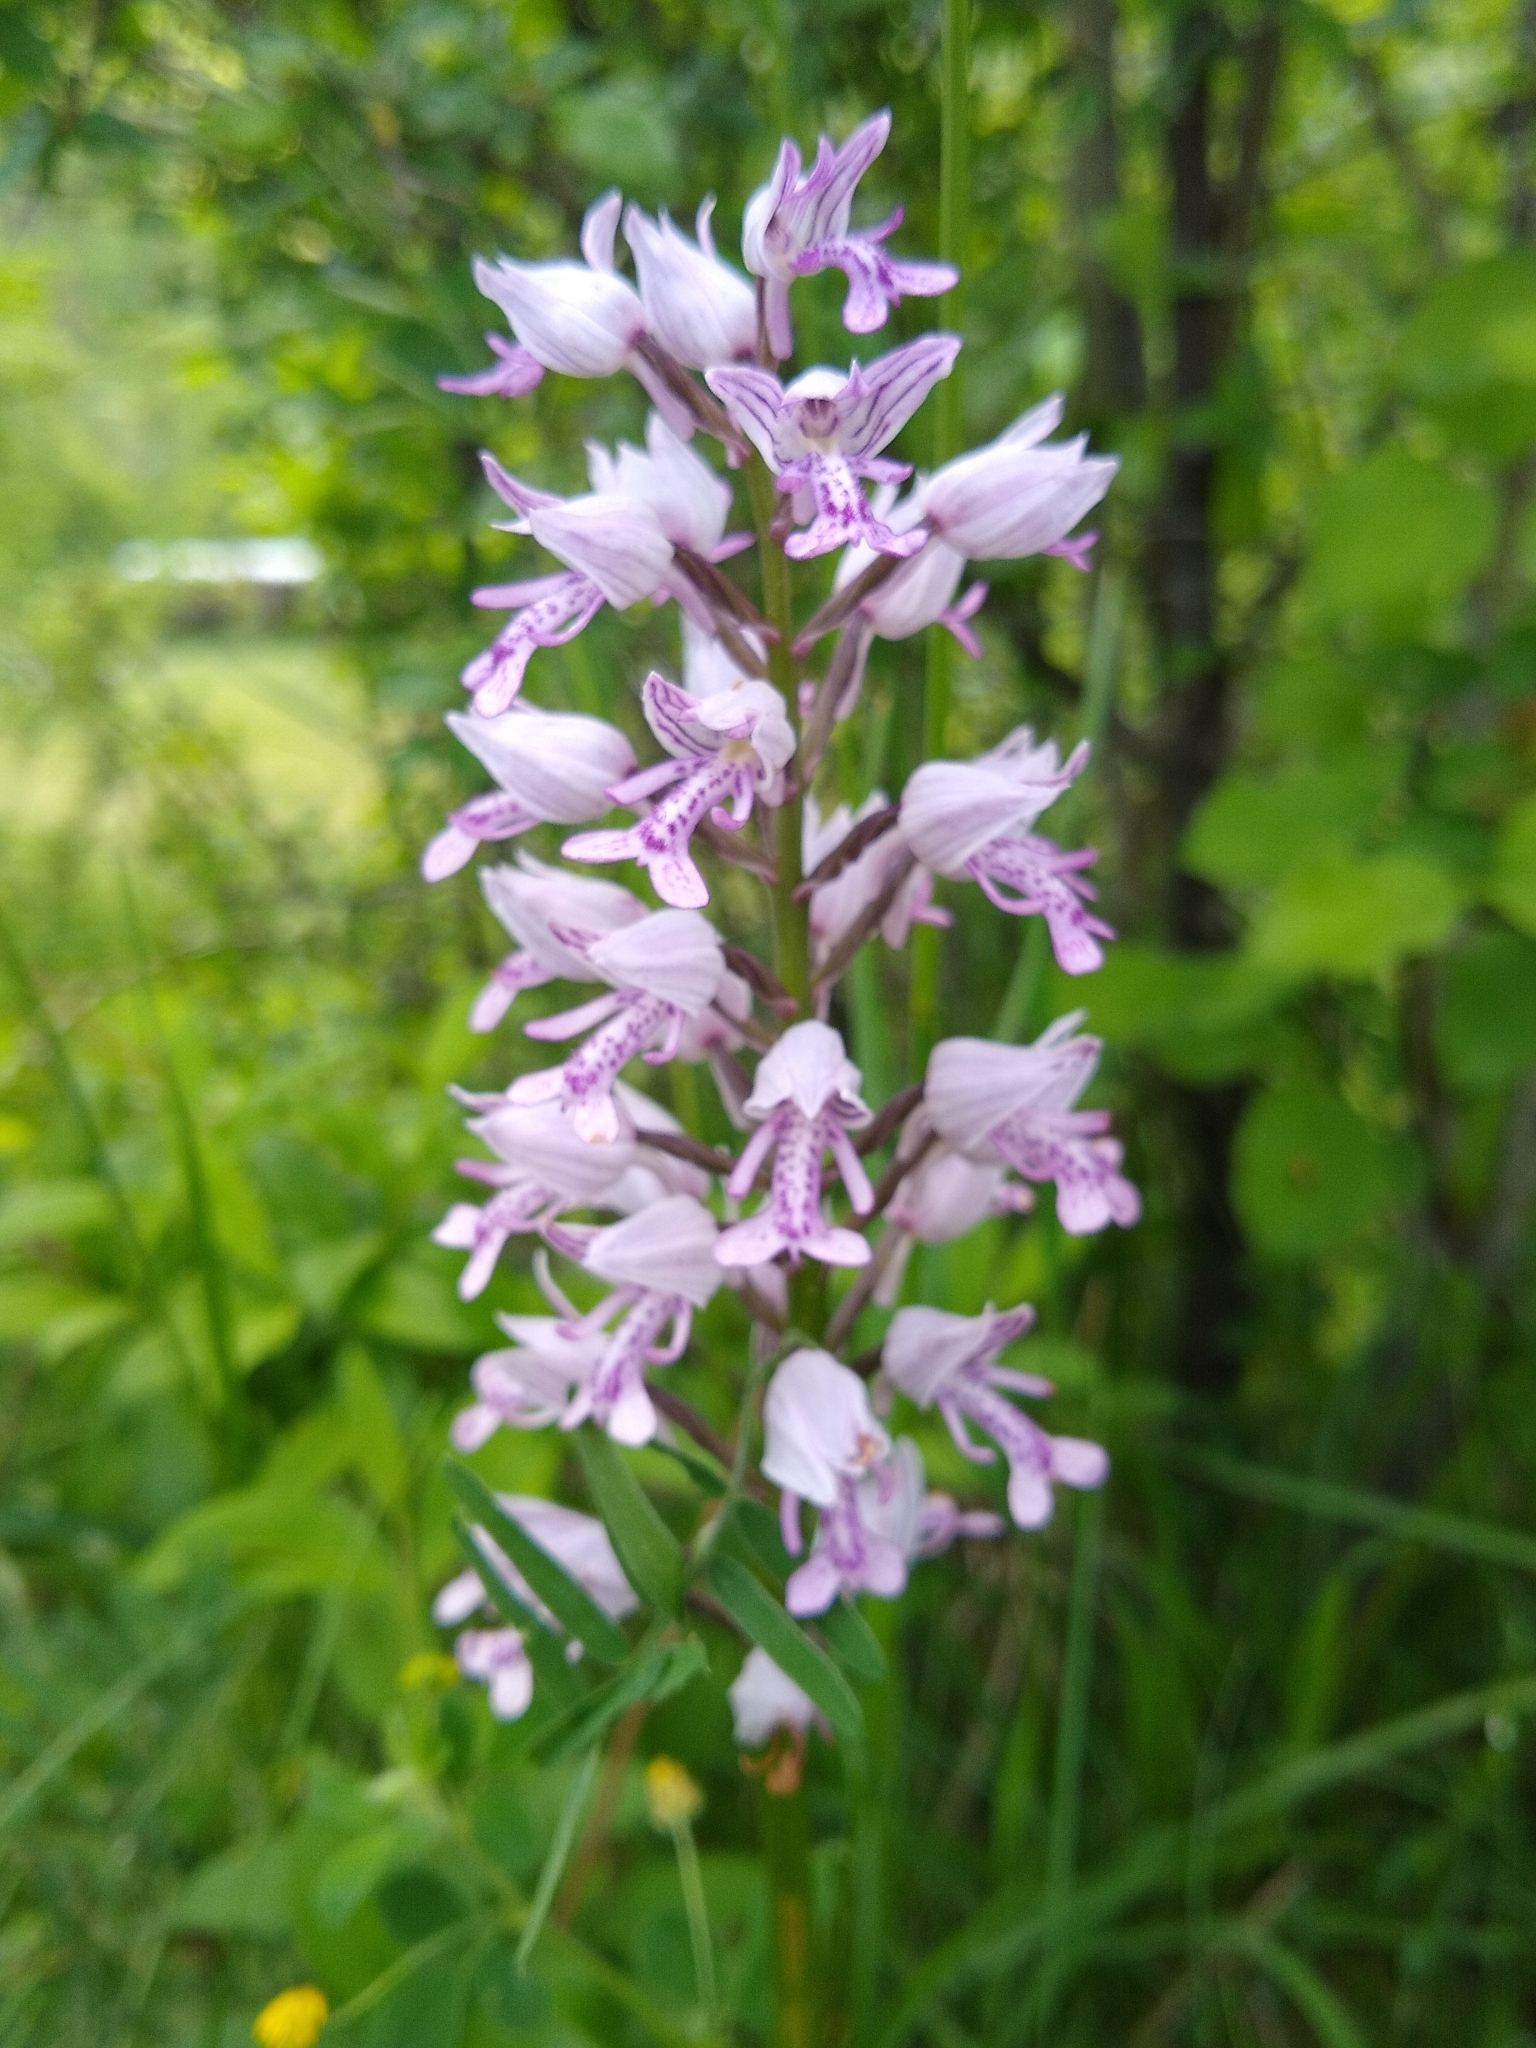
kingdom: Plantae
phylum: Tracheophyta
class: Liliopsida
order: Asparagales
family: Orchidaceae
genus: Orchis
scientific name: Orchis militaris
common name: Military orchid
